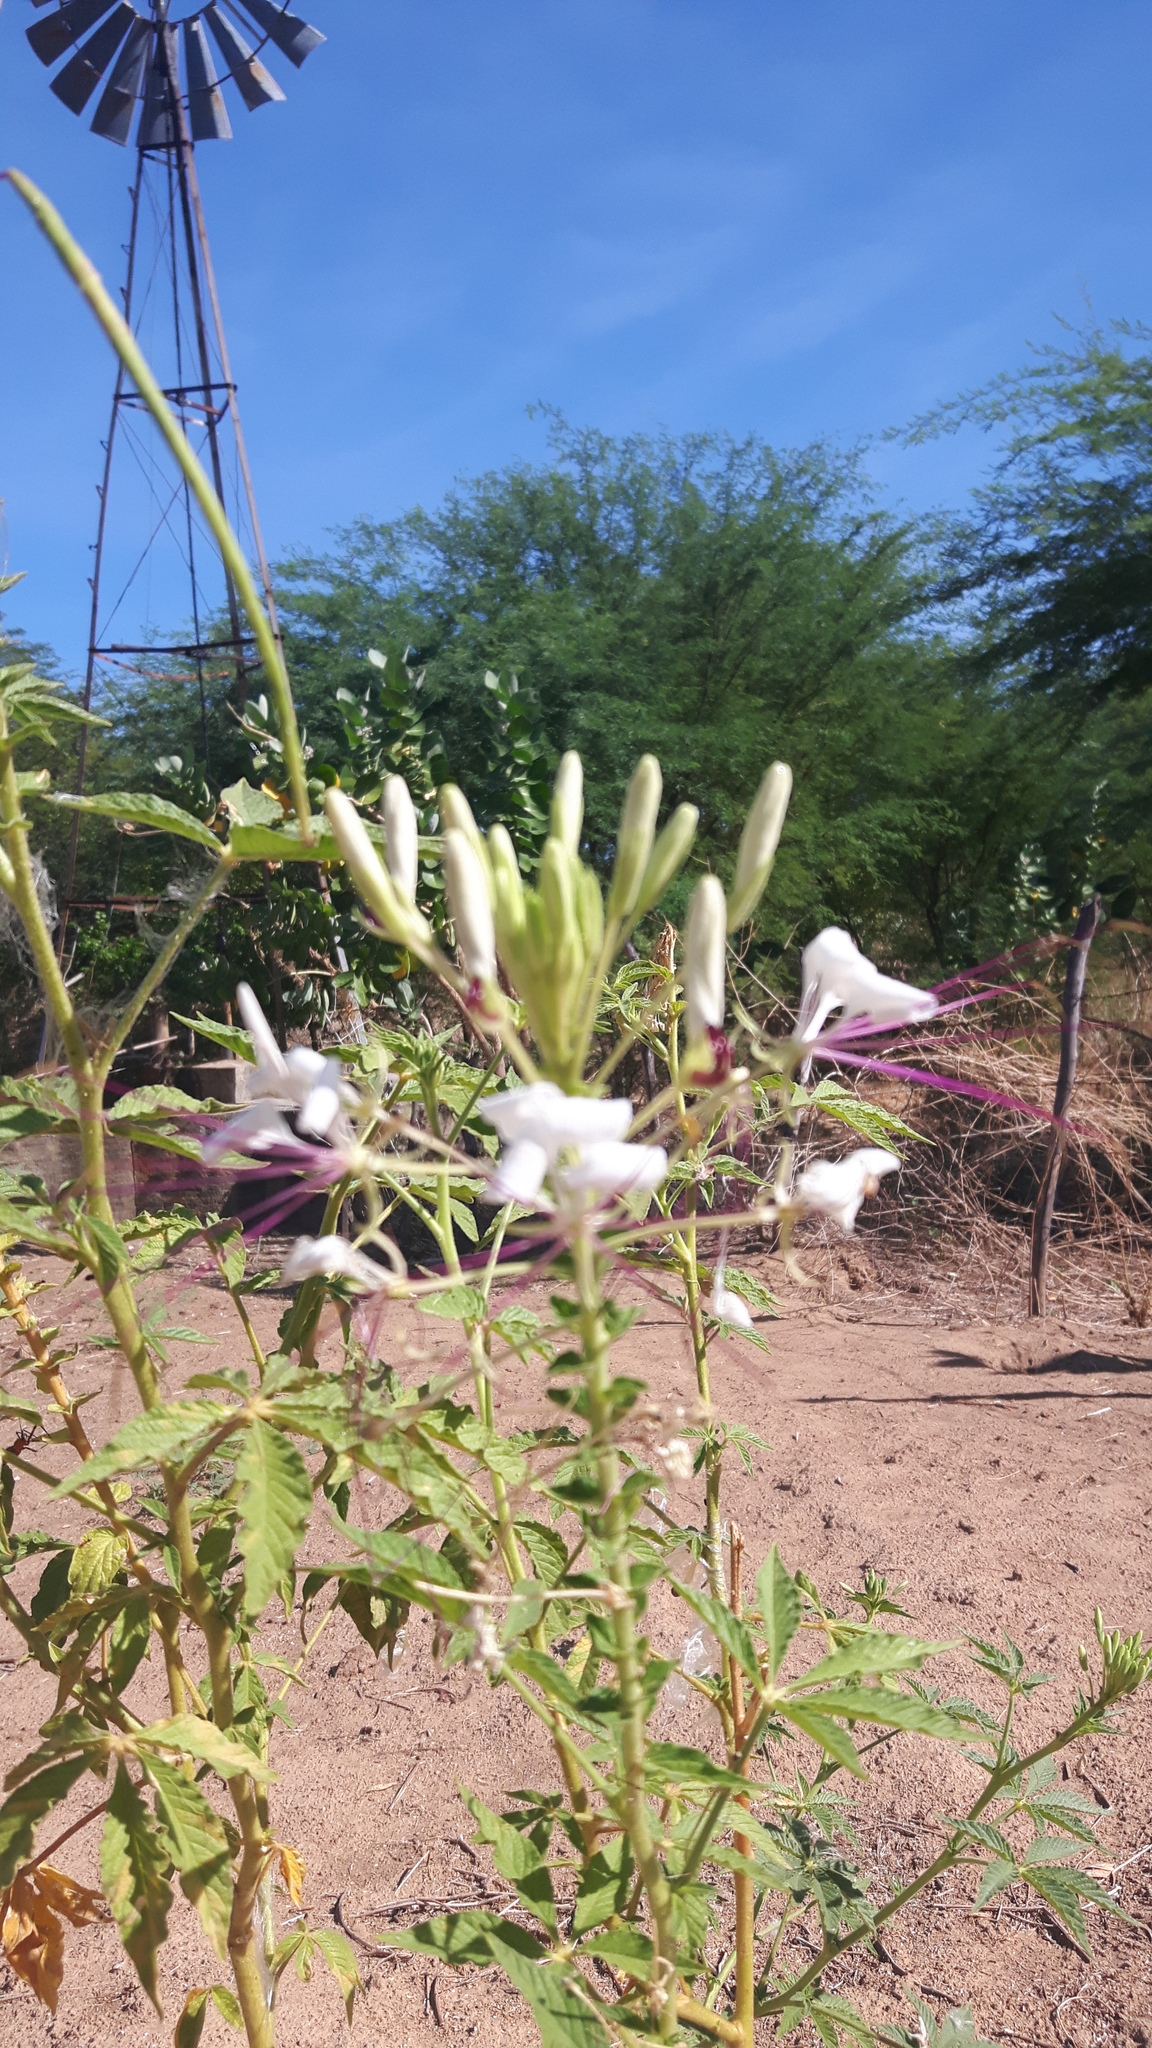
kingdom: Plantae
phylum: Tracheophyta
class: Magnoliopsida
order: Brassicales
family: Cleomaceae
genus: Tarenaya
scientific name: Tarenaya longicarpa
